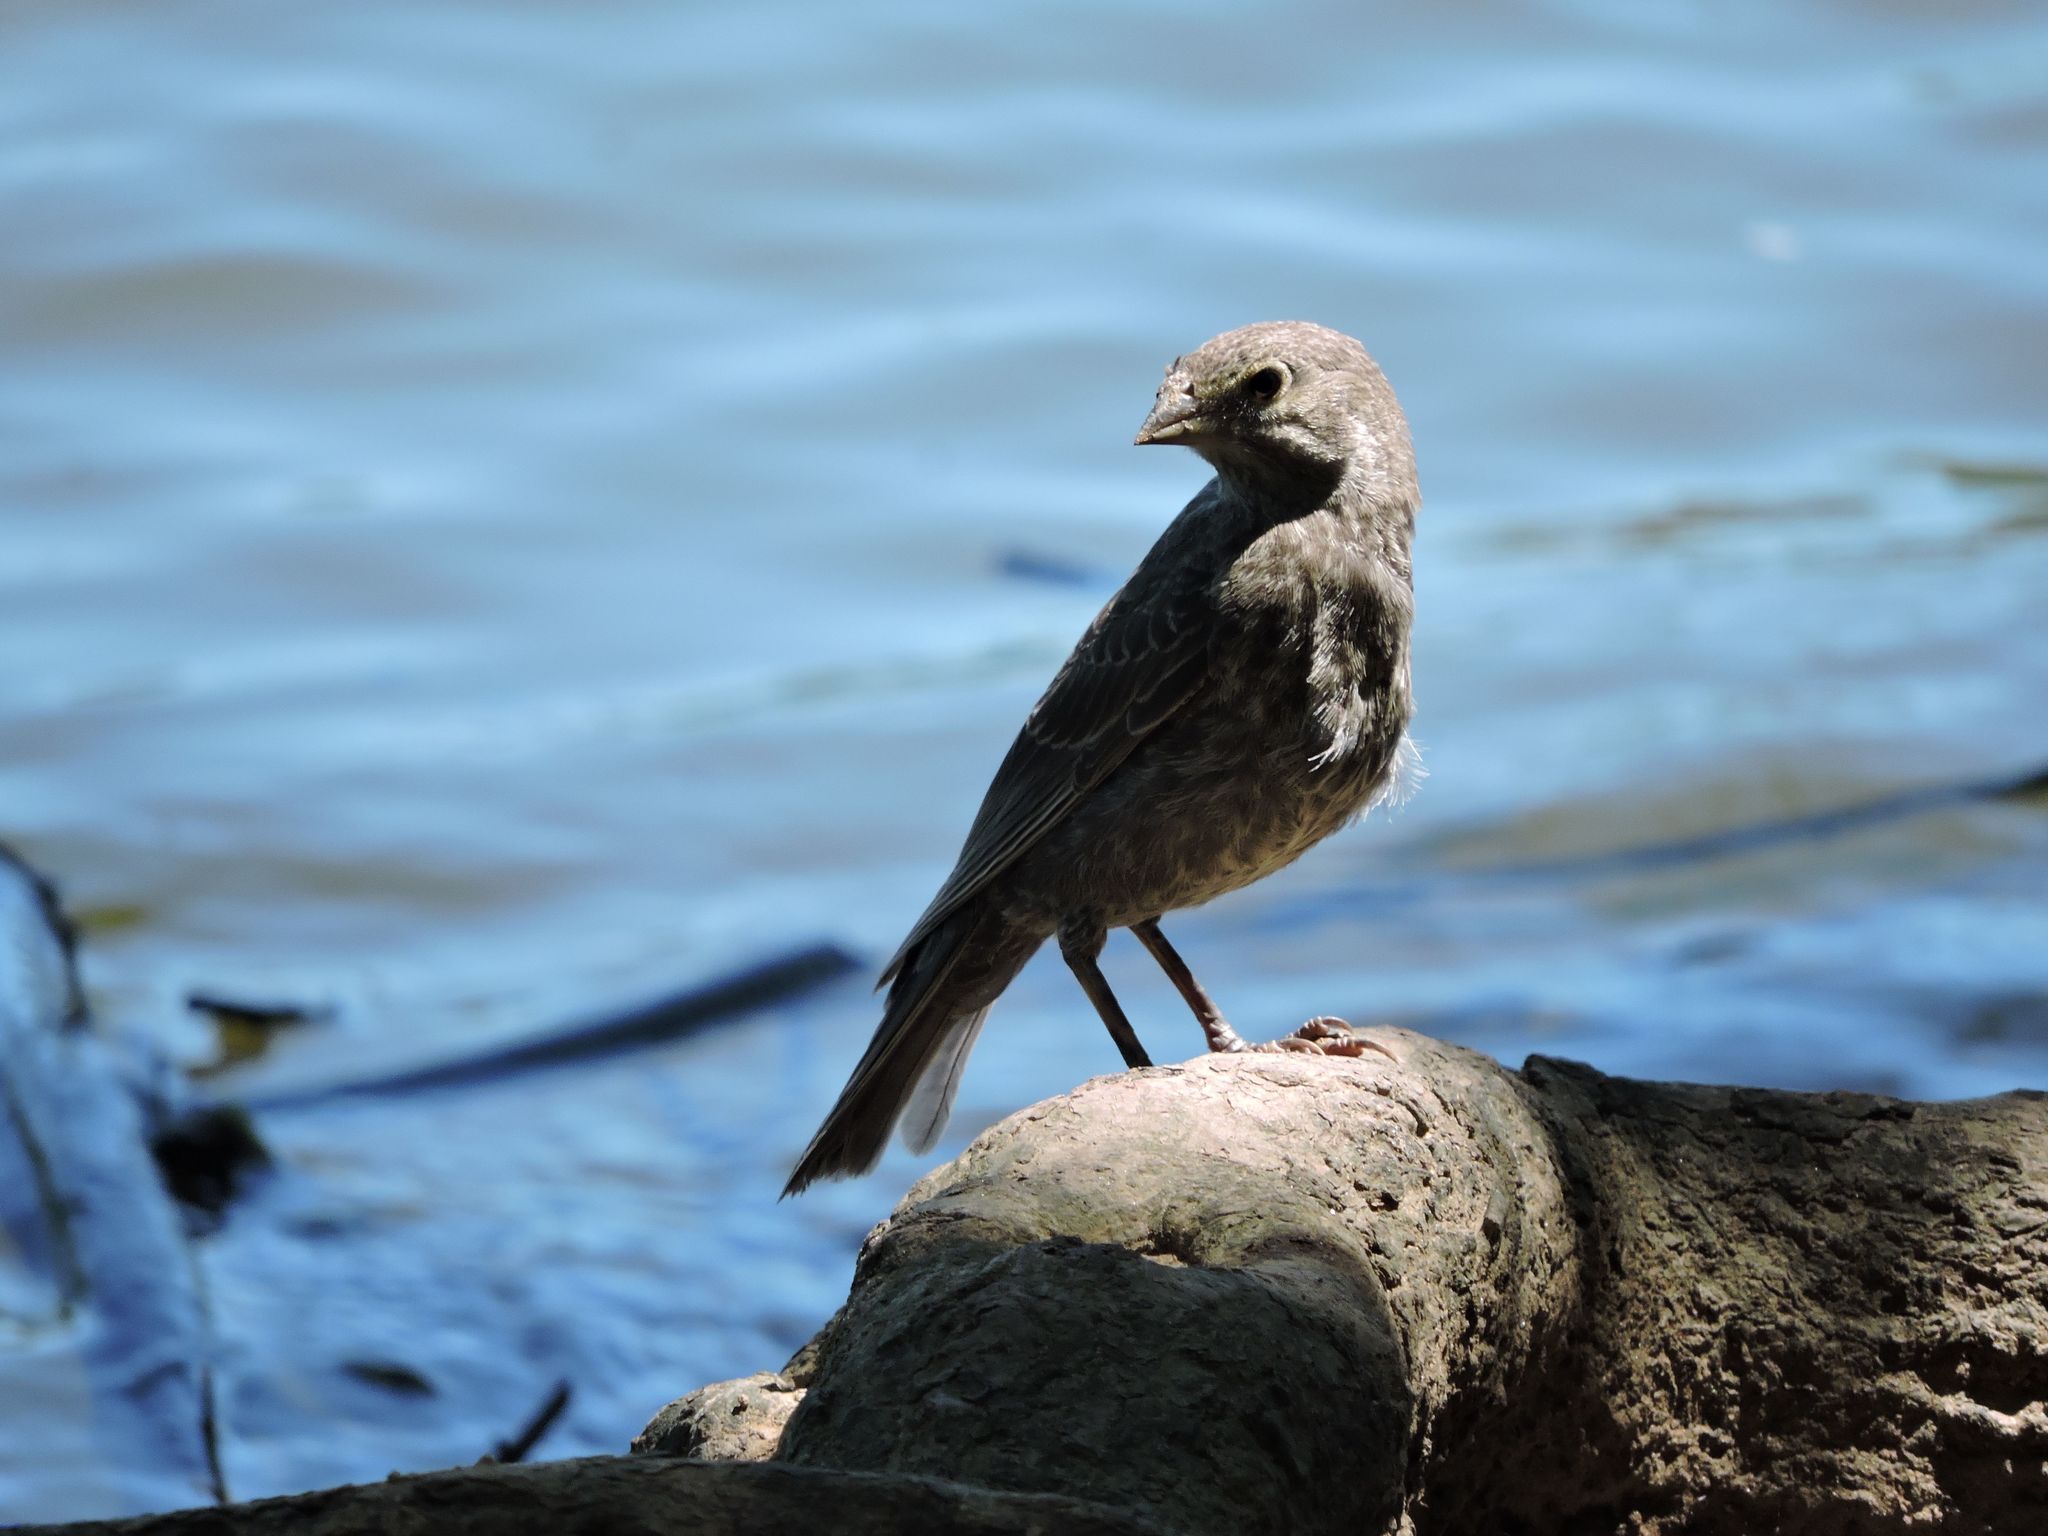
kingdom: Animalia
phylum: Chordata
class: Aves
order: Passeriformes
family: Icteridae
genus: Molothrus
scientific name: Molothrus ater
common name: Brown-headed cowbird
